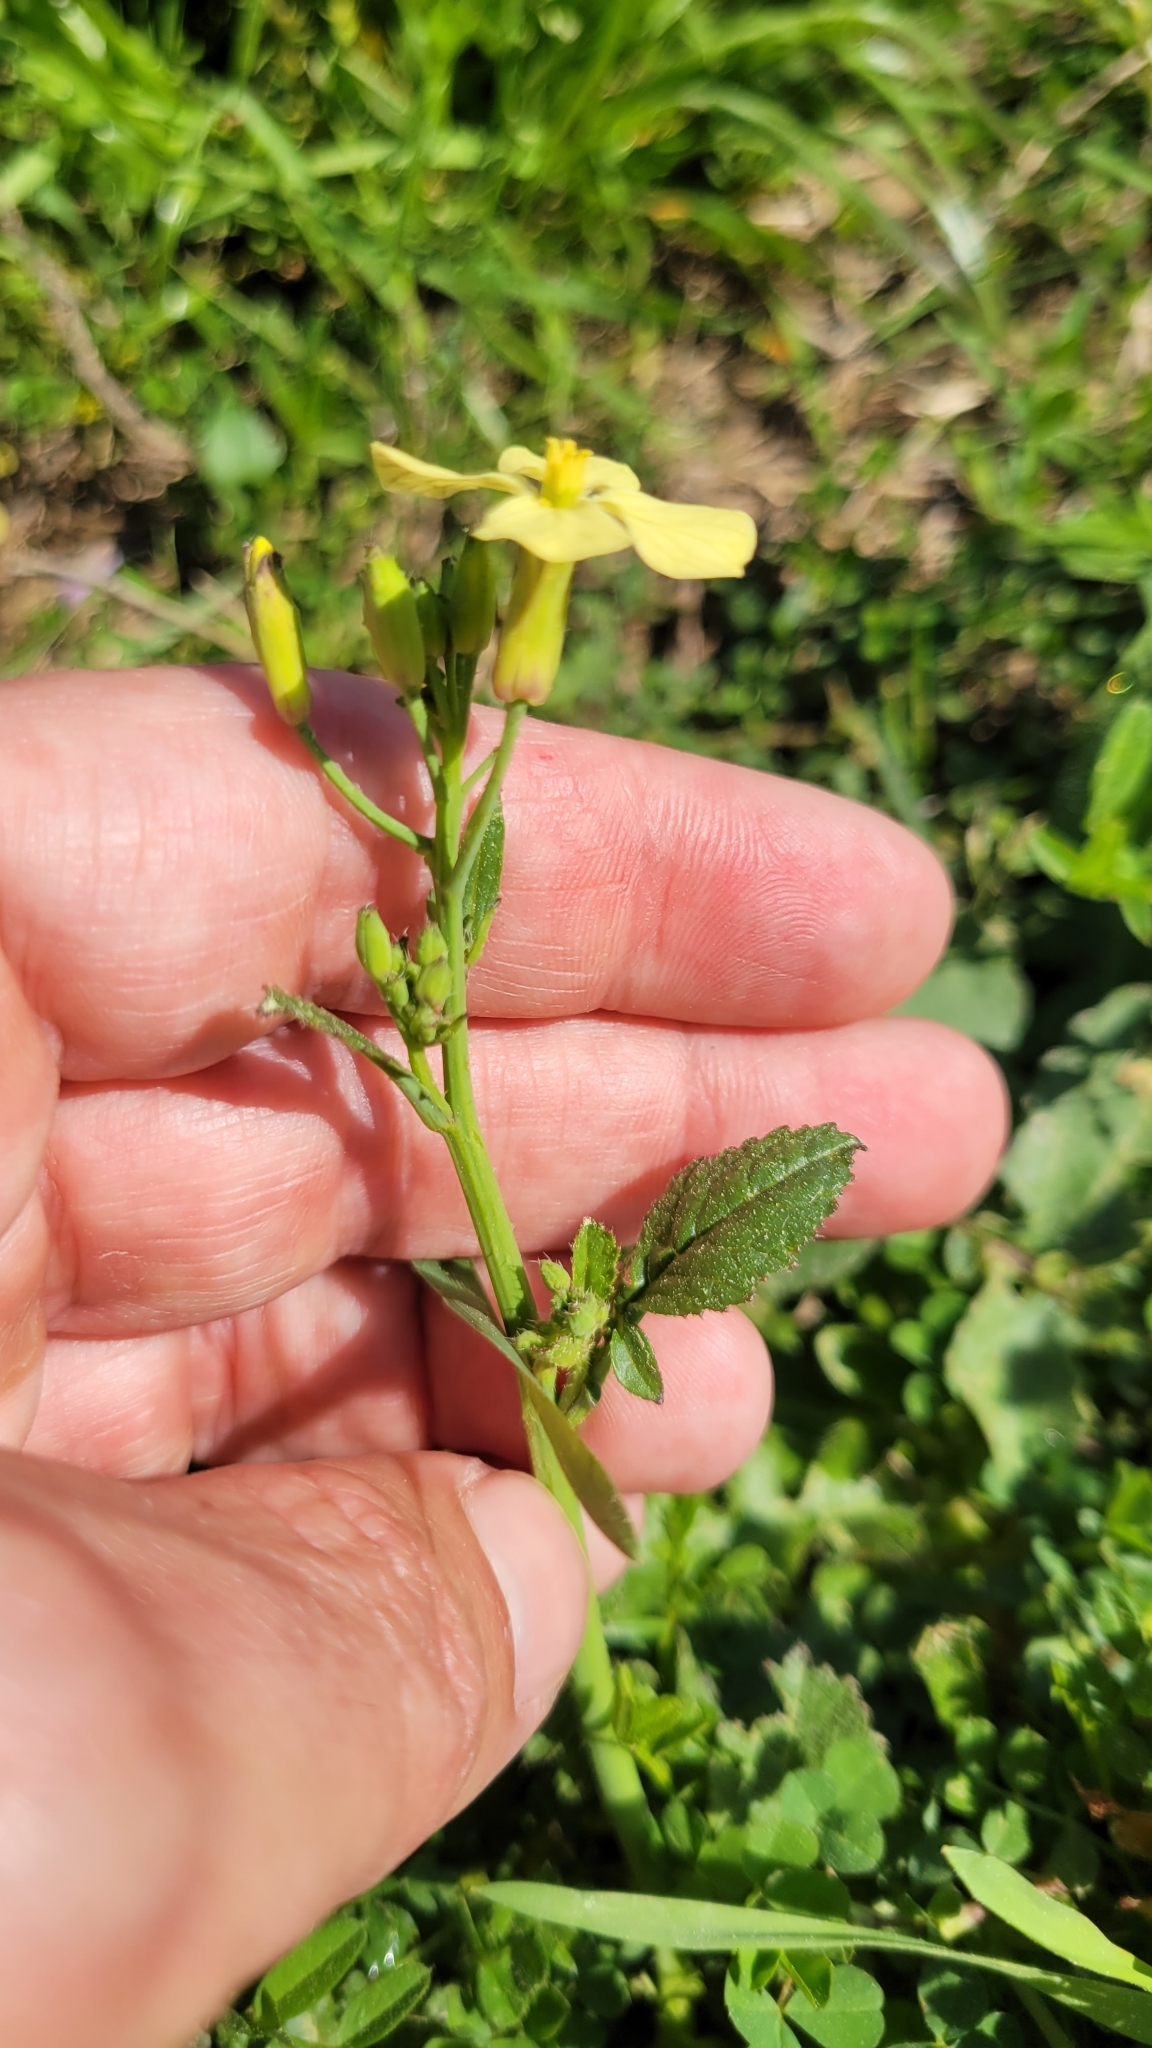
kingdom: Plantae
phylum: Tracheophyta
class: Magnoliopsida
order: Brassicales
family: Brassicaceae
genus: Raphanus
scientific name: Raphanus raphanistrum
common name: Wild radish
